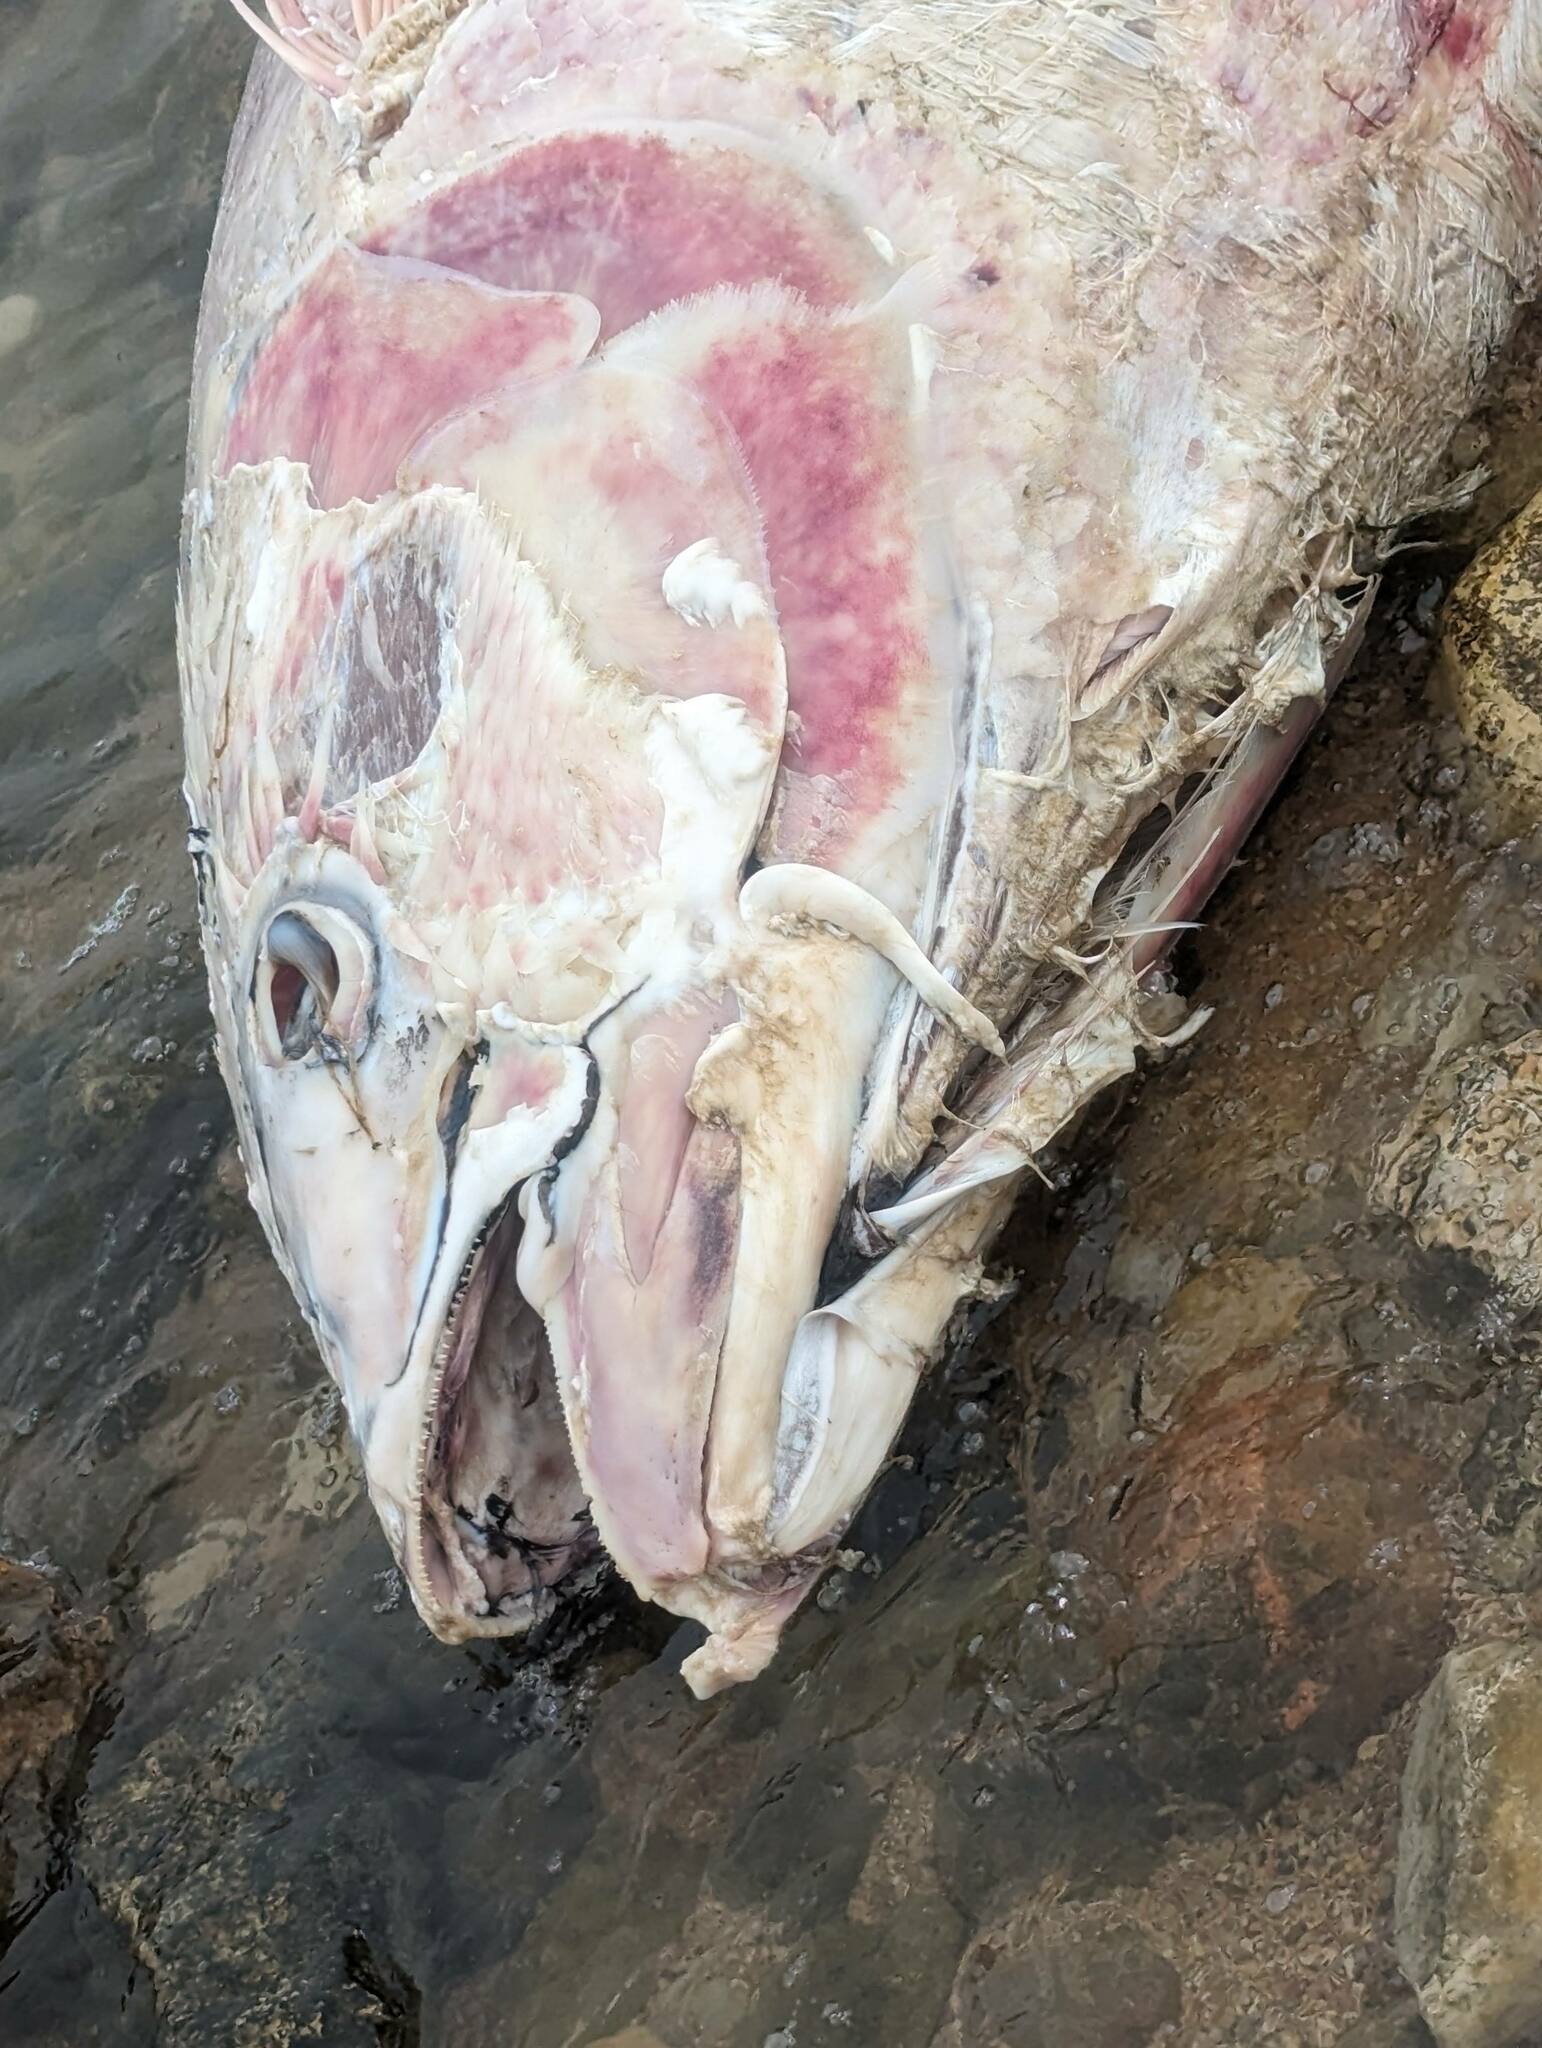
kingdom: Animalia
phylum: Chordata
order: Perciformes
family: Scombridae
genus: Thunnus
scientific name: Thunnus thynnus
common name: Bluefin tuna
